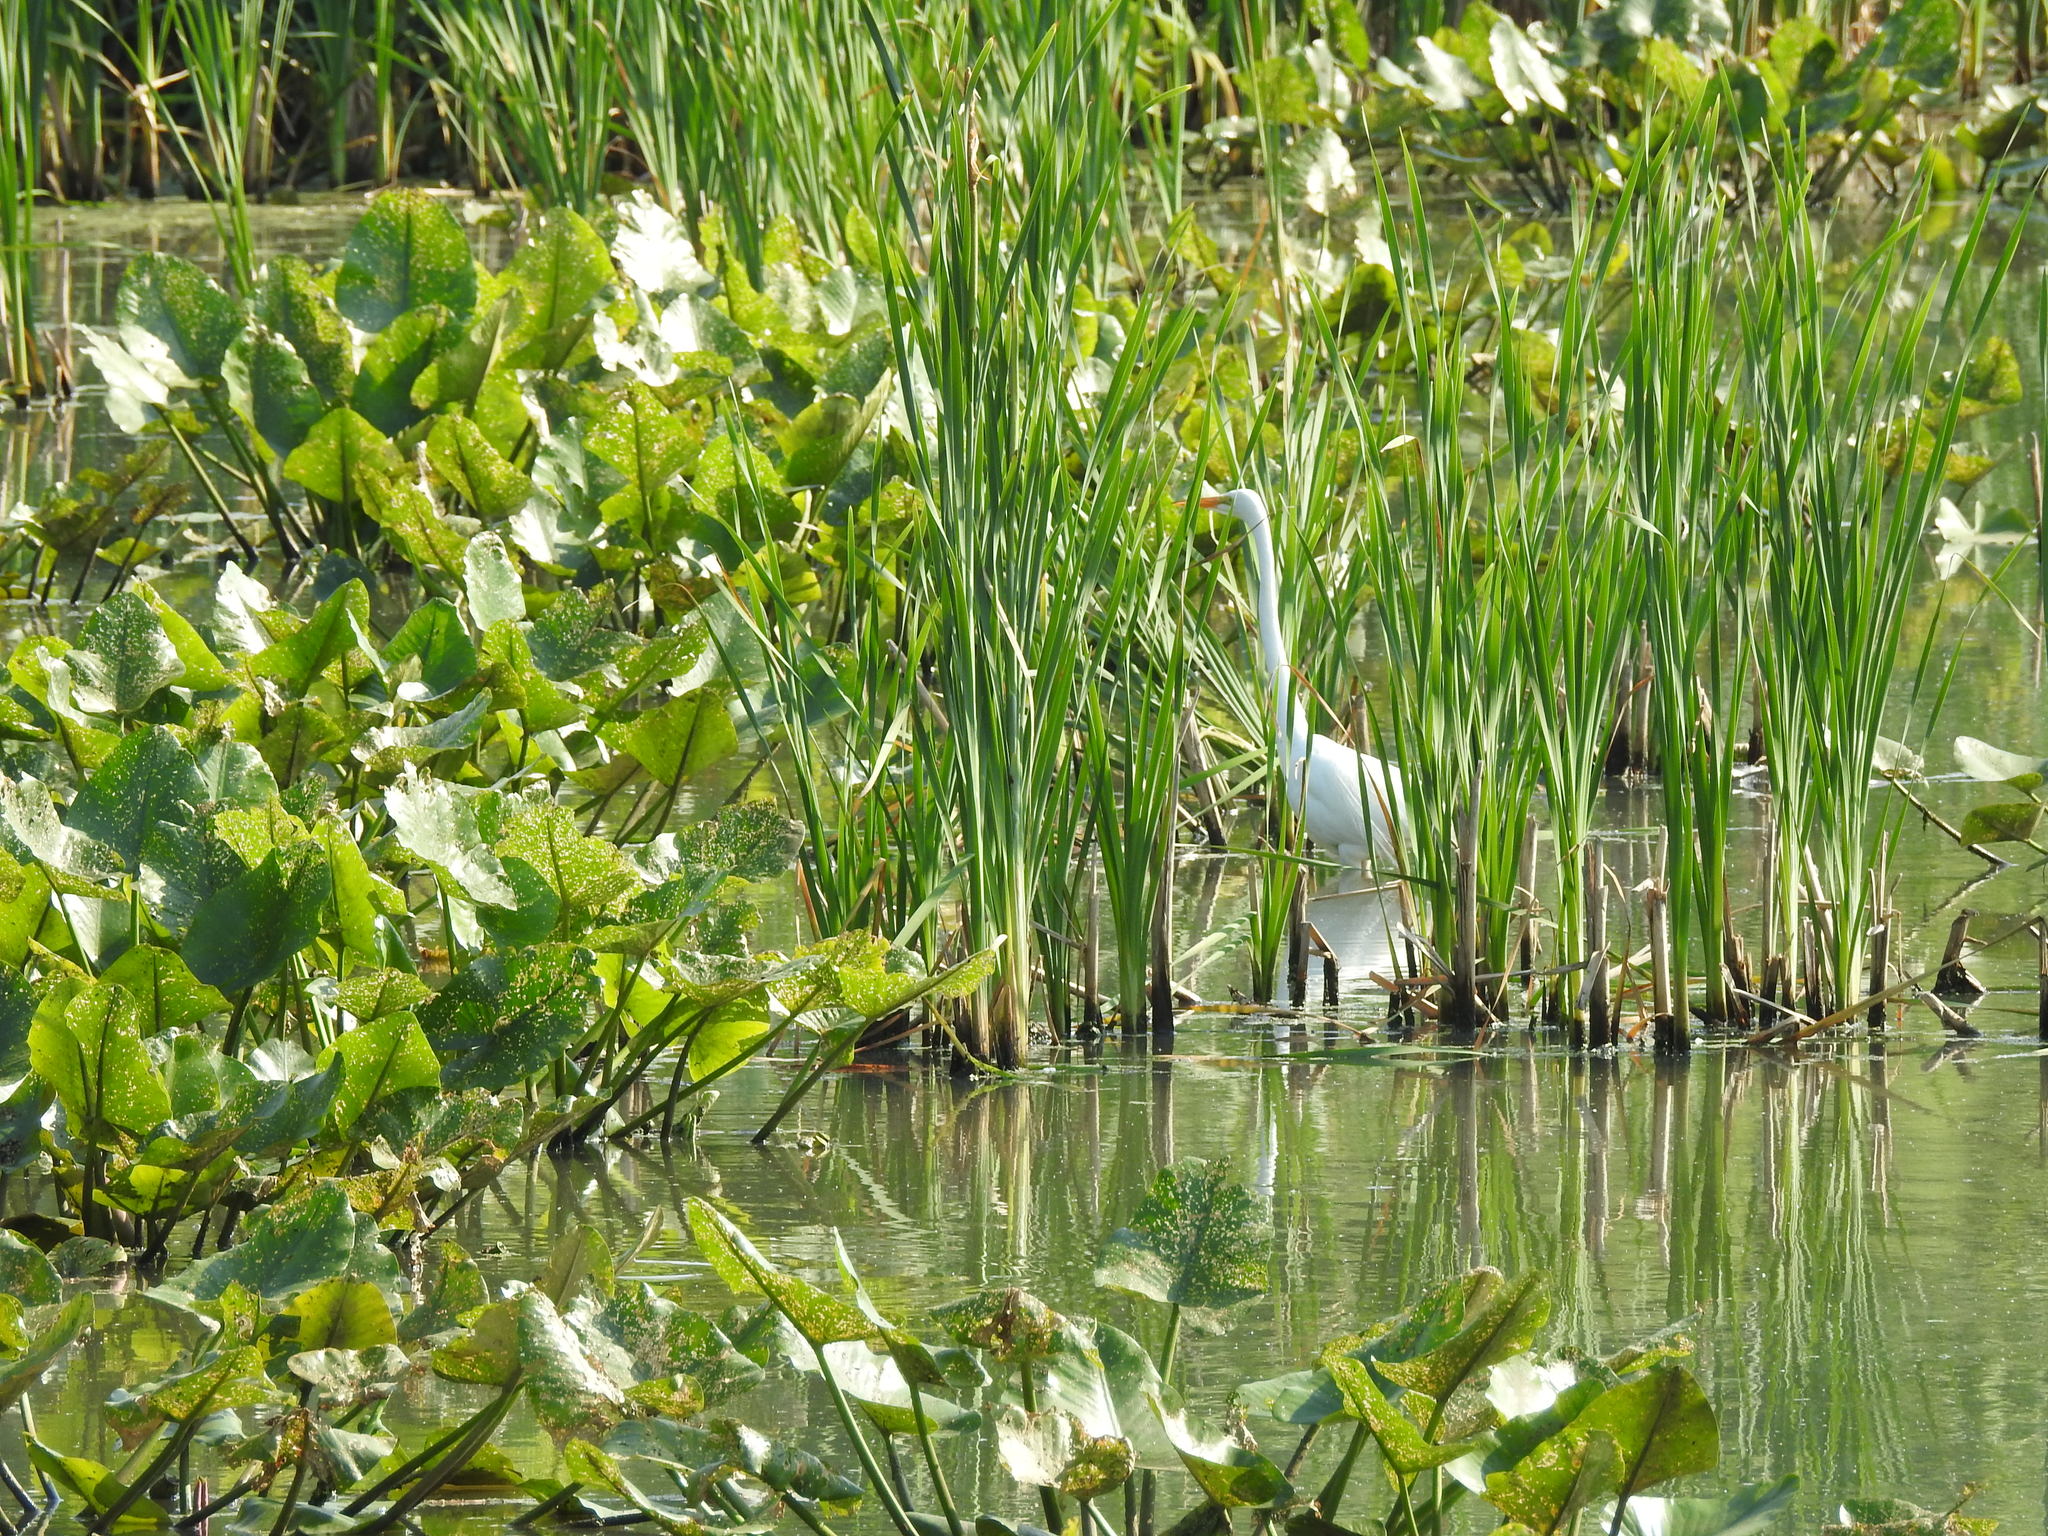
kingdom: Animalia
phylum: Chordata
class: Aves
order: Pelecaniformes
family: Ardeidae
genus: Ardea
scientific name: Ardea alba
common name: Great egret
